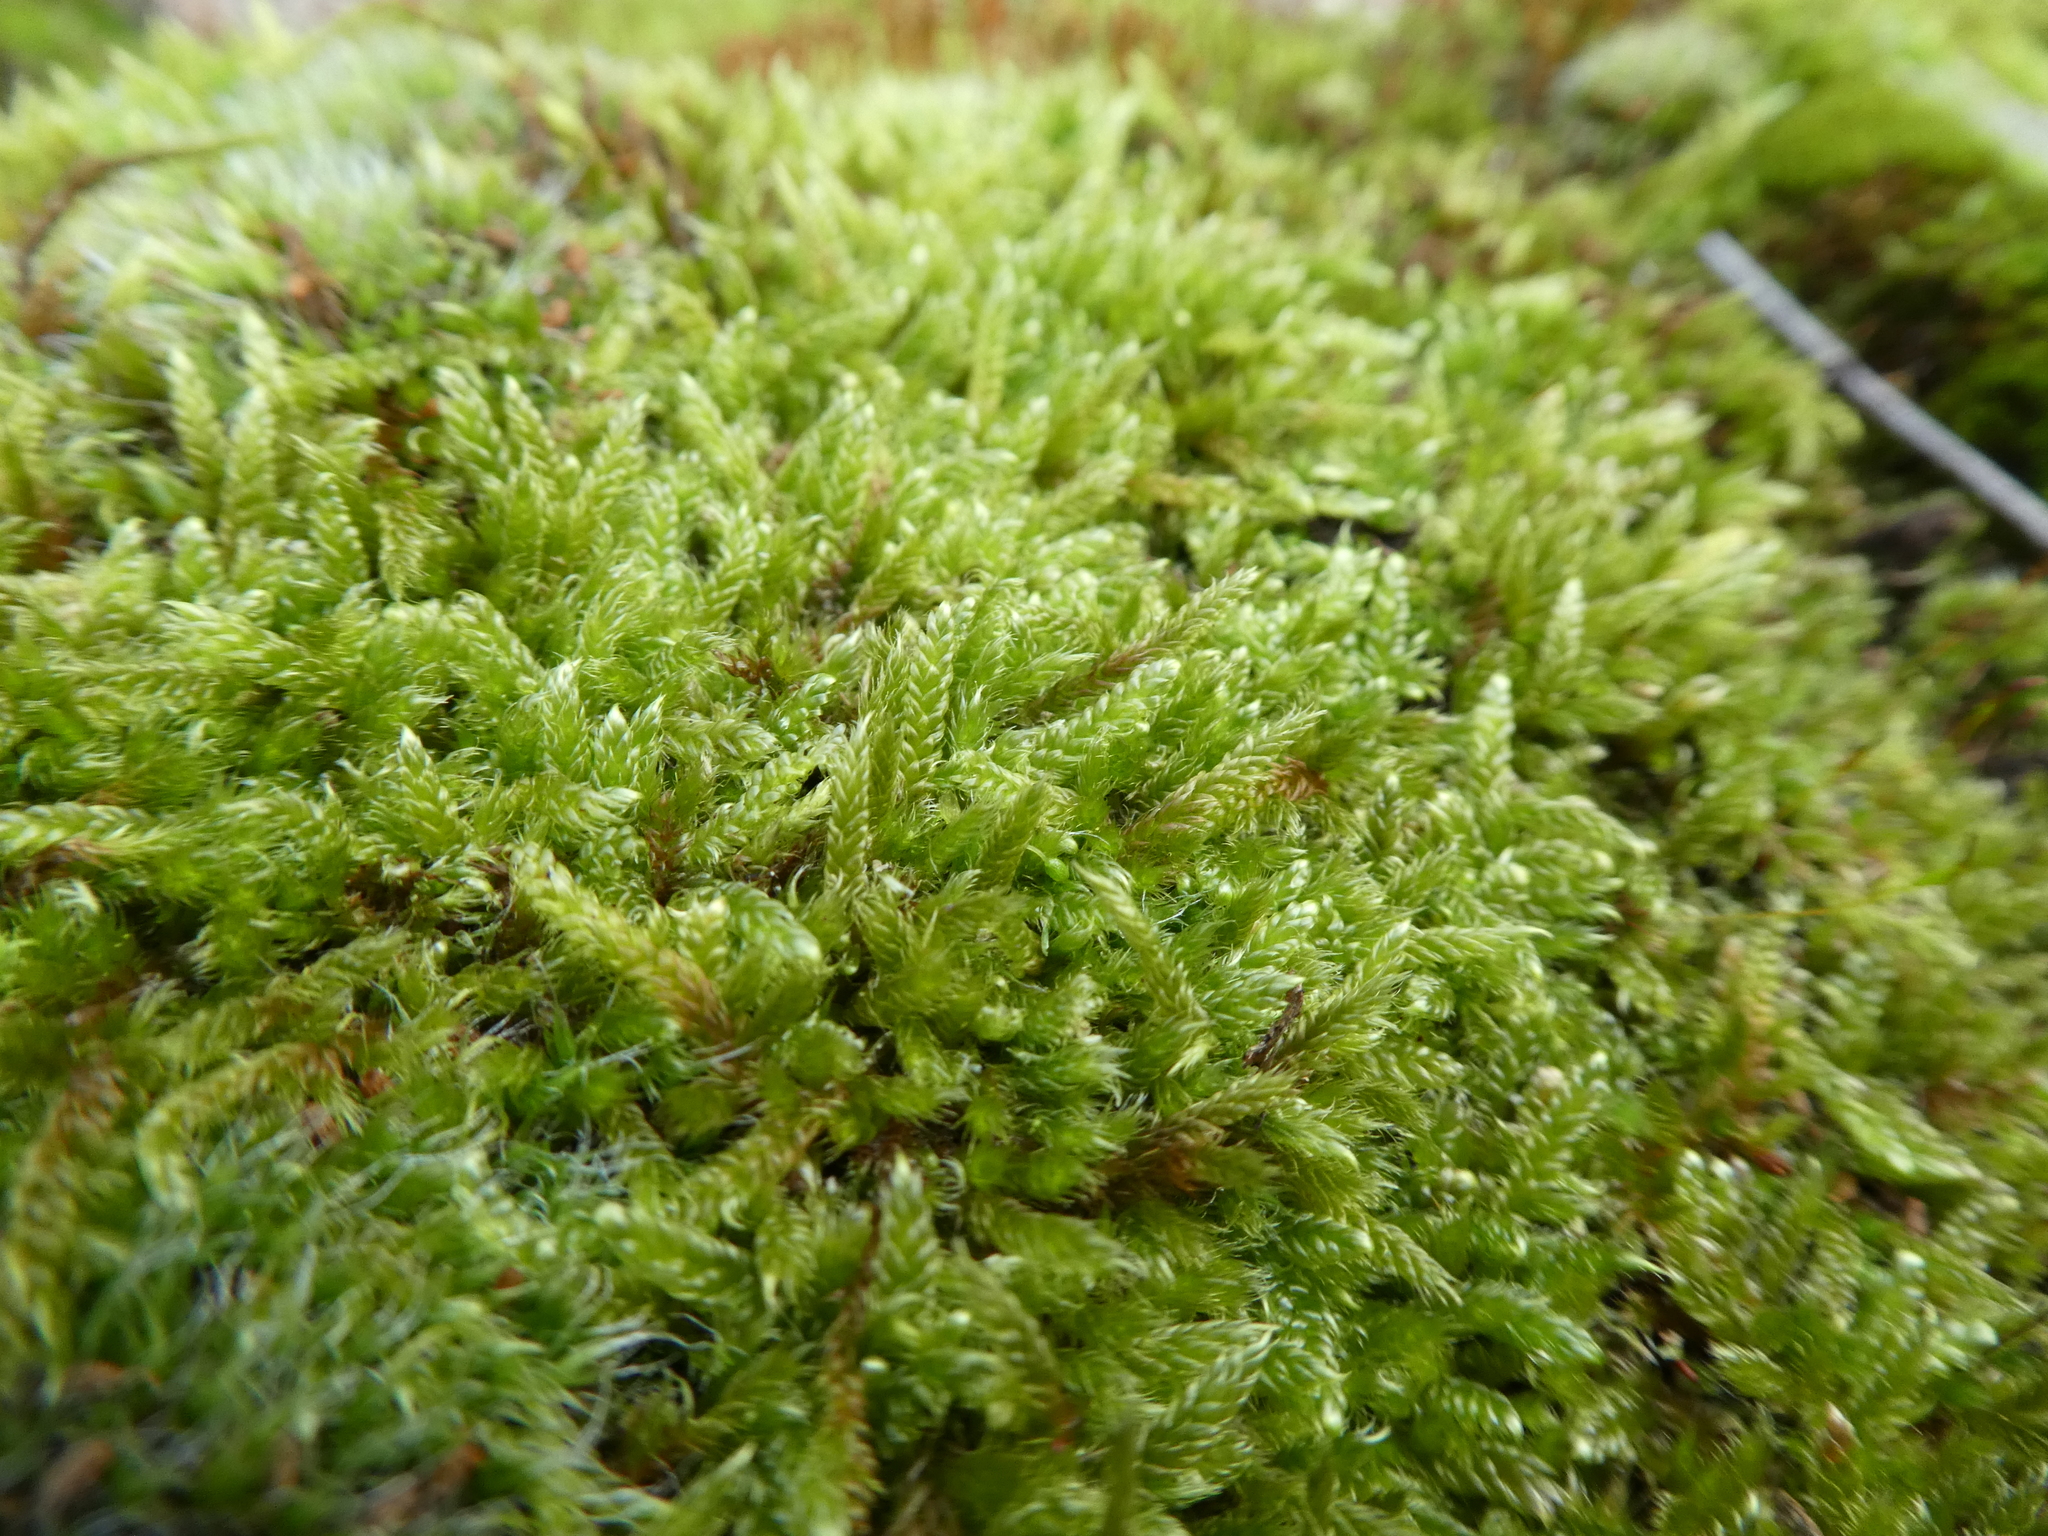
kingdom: Plantae
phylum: Bryophyta
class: Bryopsida
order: Hypnales
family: Hypnaceae
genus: Hypnum
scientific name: Hypnum cupressiforme
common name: Cypress-leaved plait-moss
